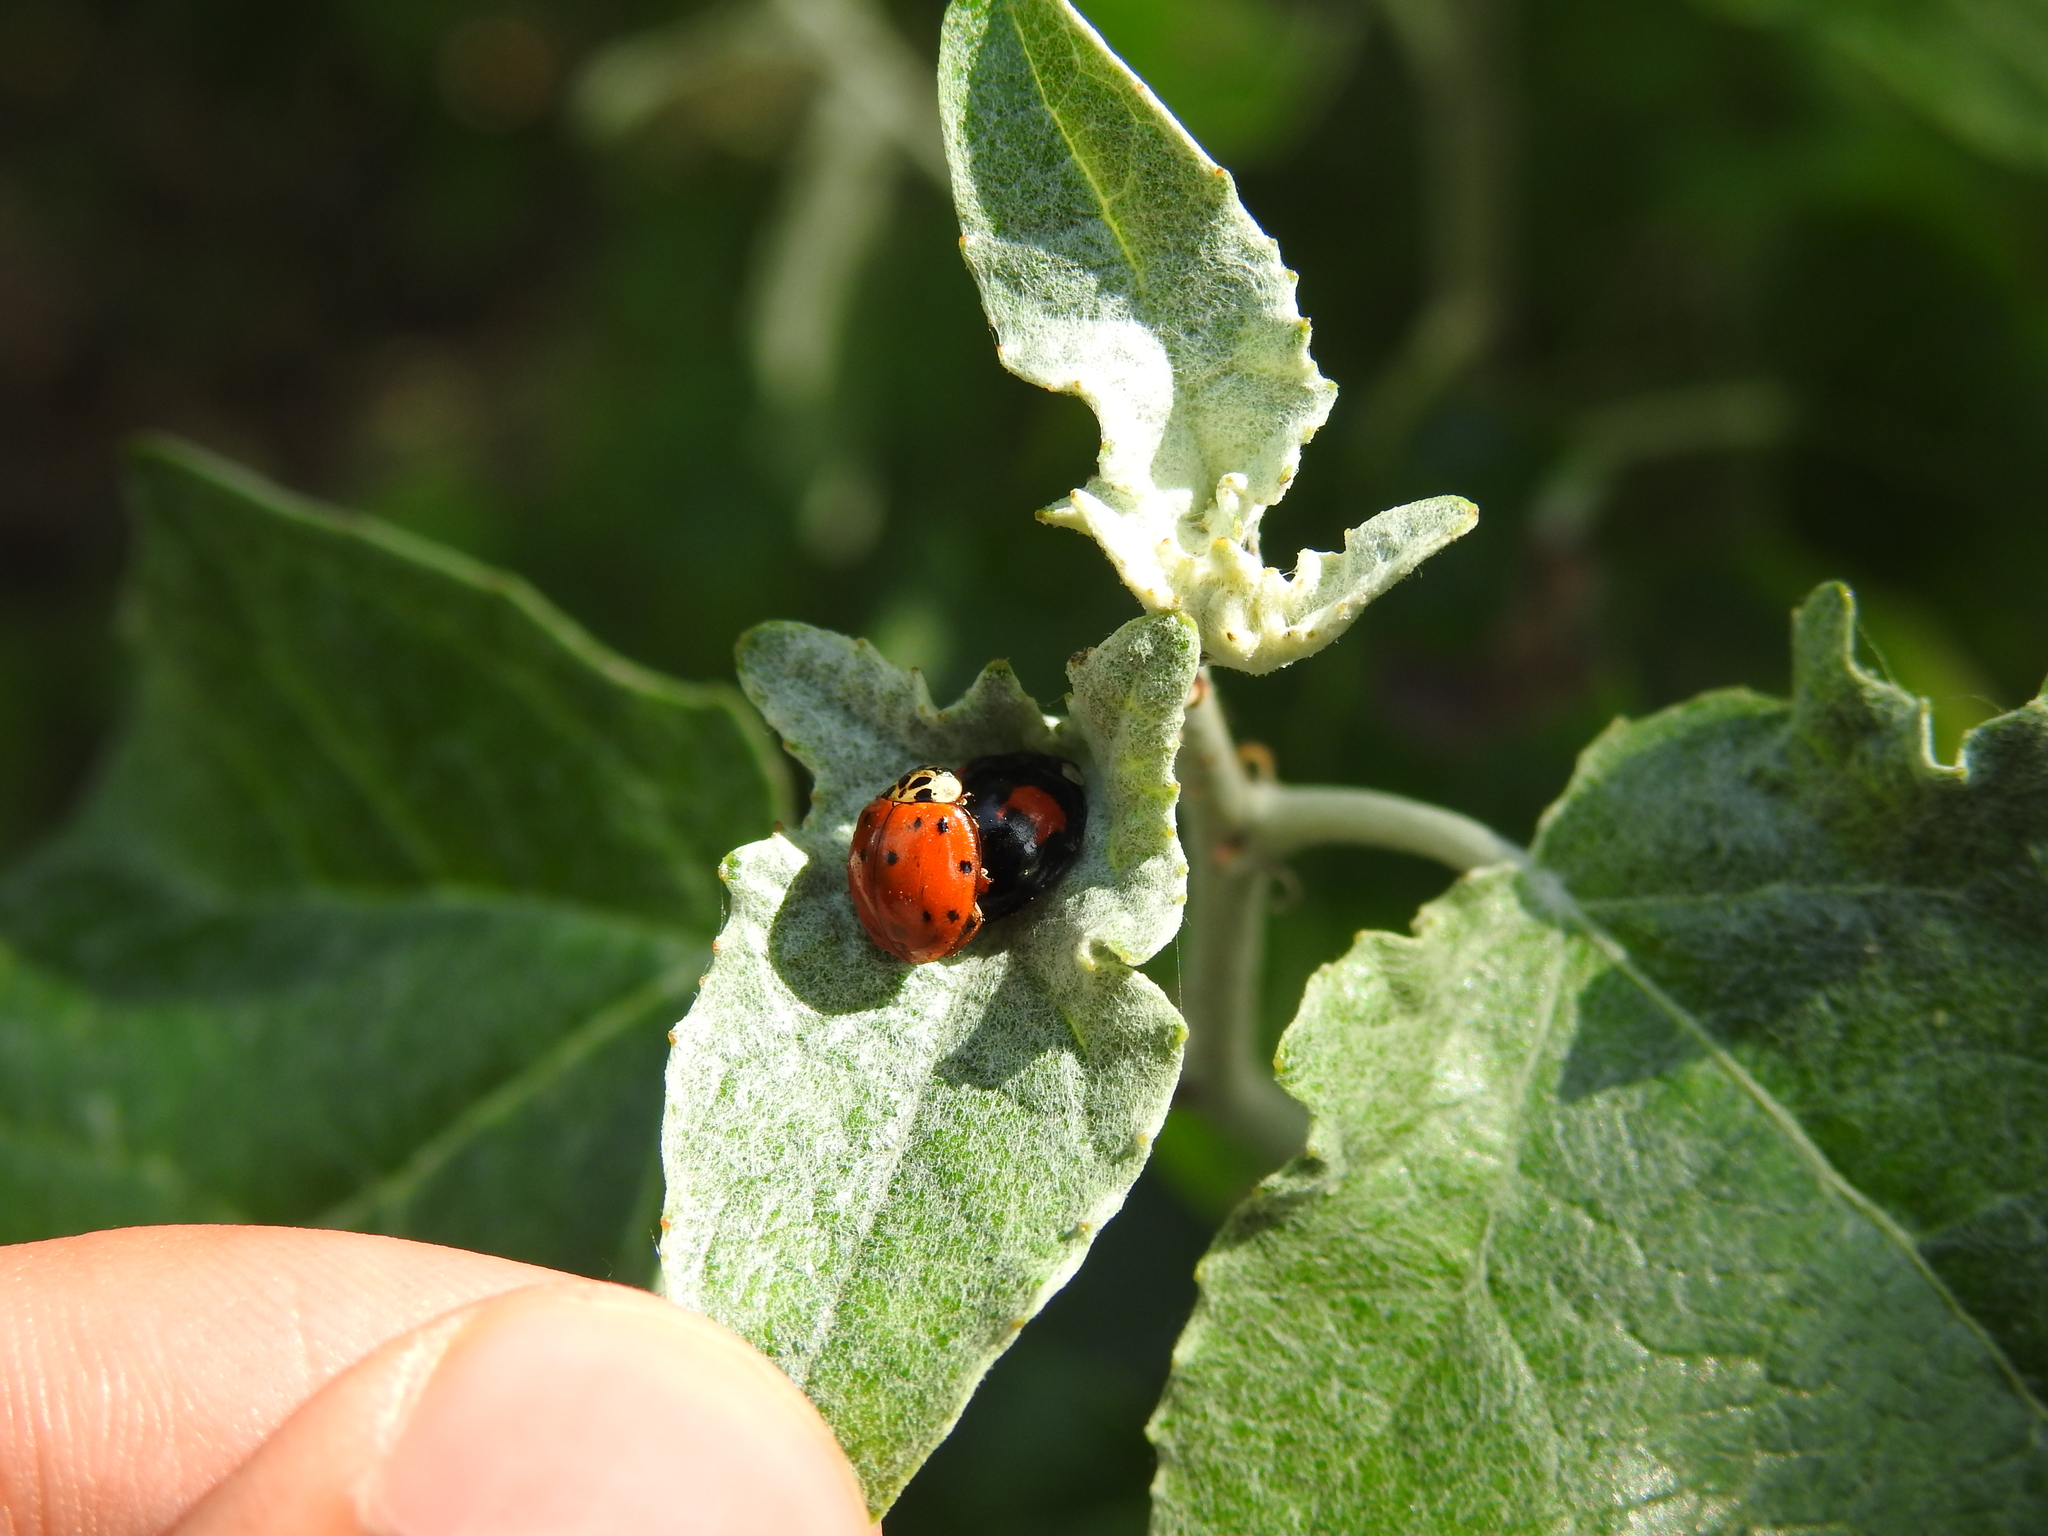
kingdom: Animalia
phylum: Arthropoda
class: Insecta
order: Coleoptera
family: Coccinellidae
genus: Harmonia
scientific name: Harmonia axyridis
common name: Harlequin ladybird
